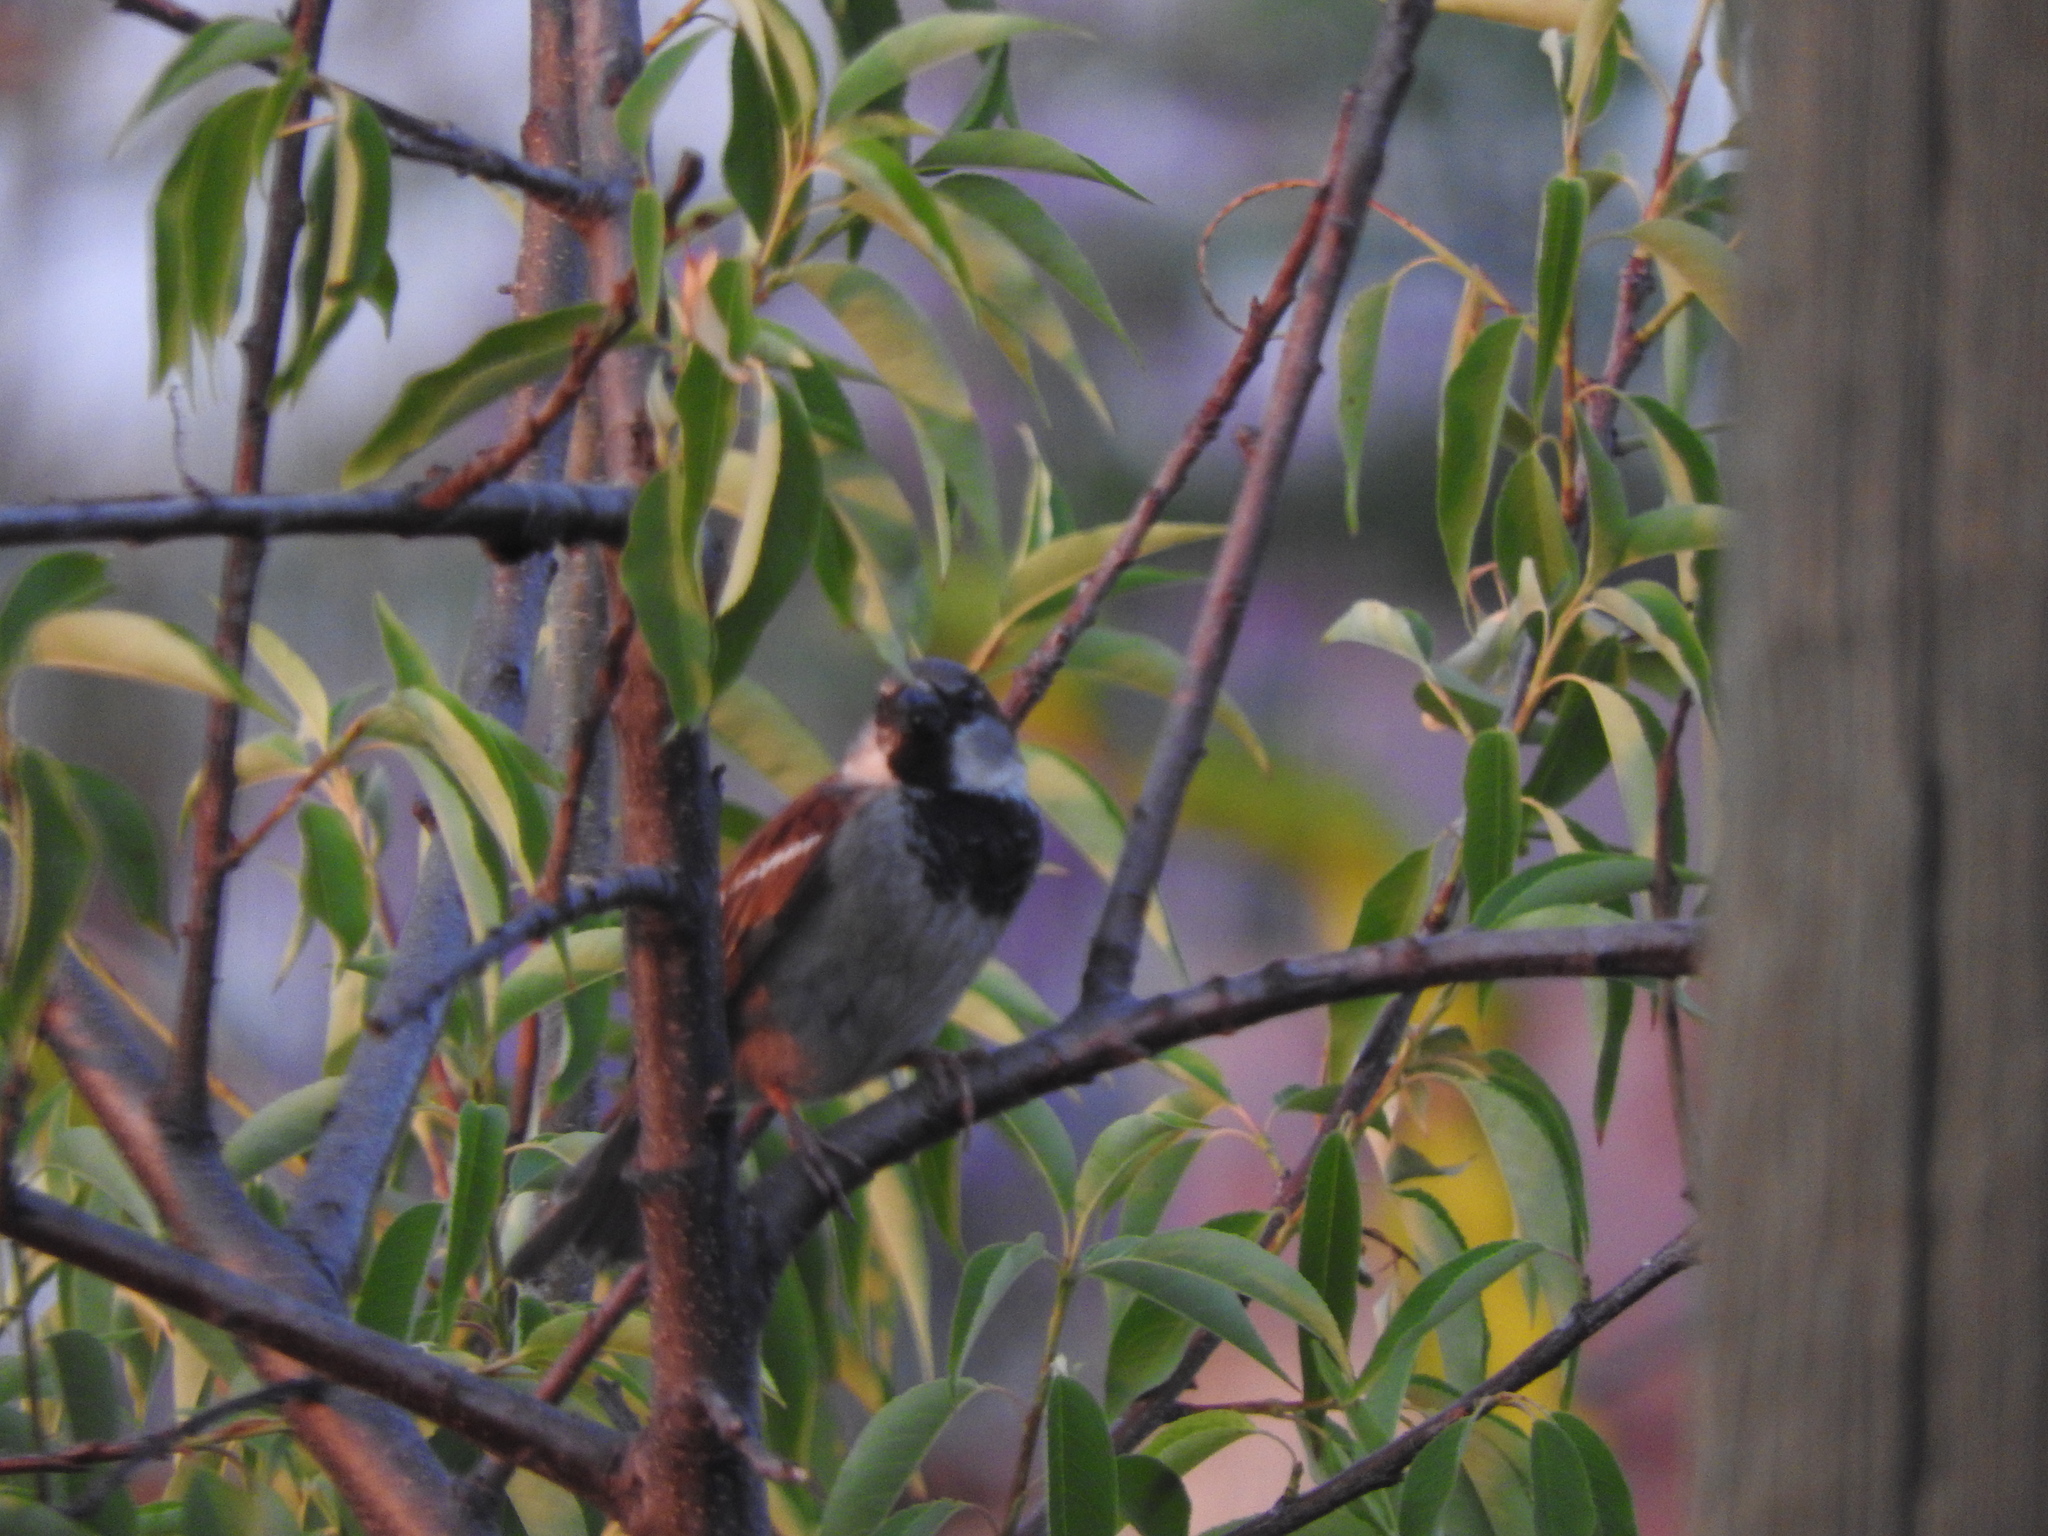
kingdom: Animalia
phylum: Chordata
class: Aves
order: Passeriformes
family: Passeridae
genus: Passer
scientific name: Passer domesticus
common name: House sparrow
